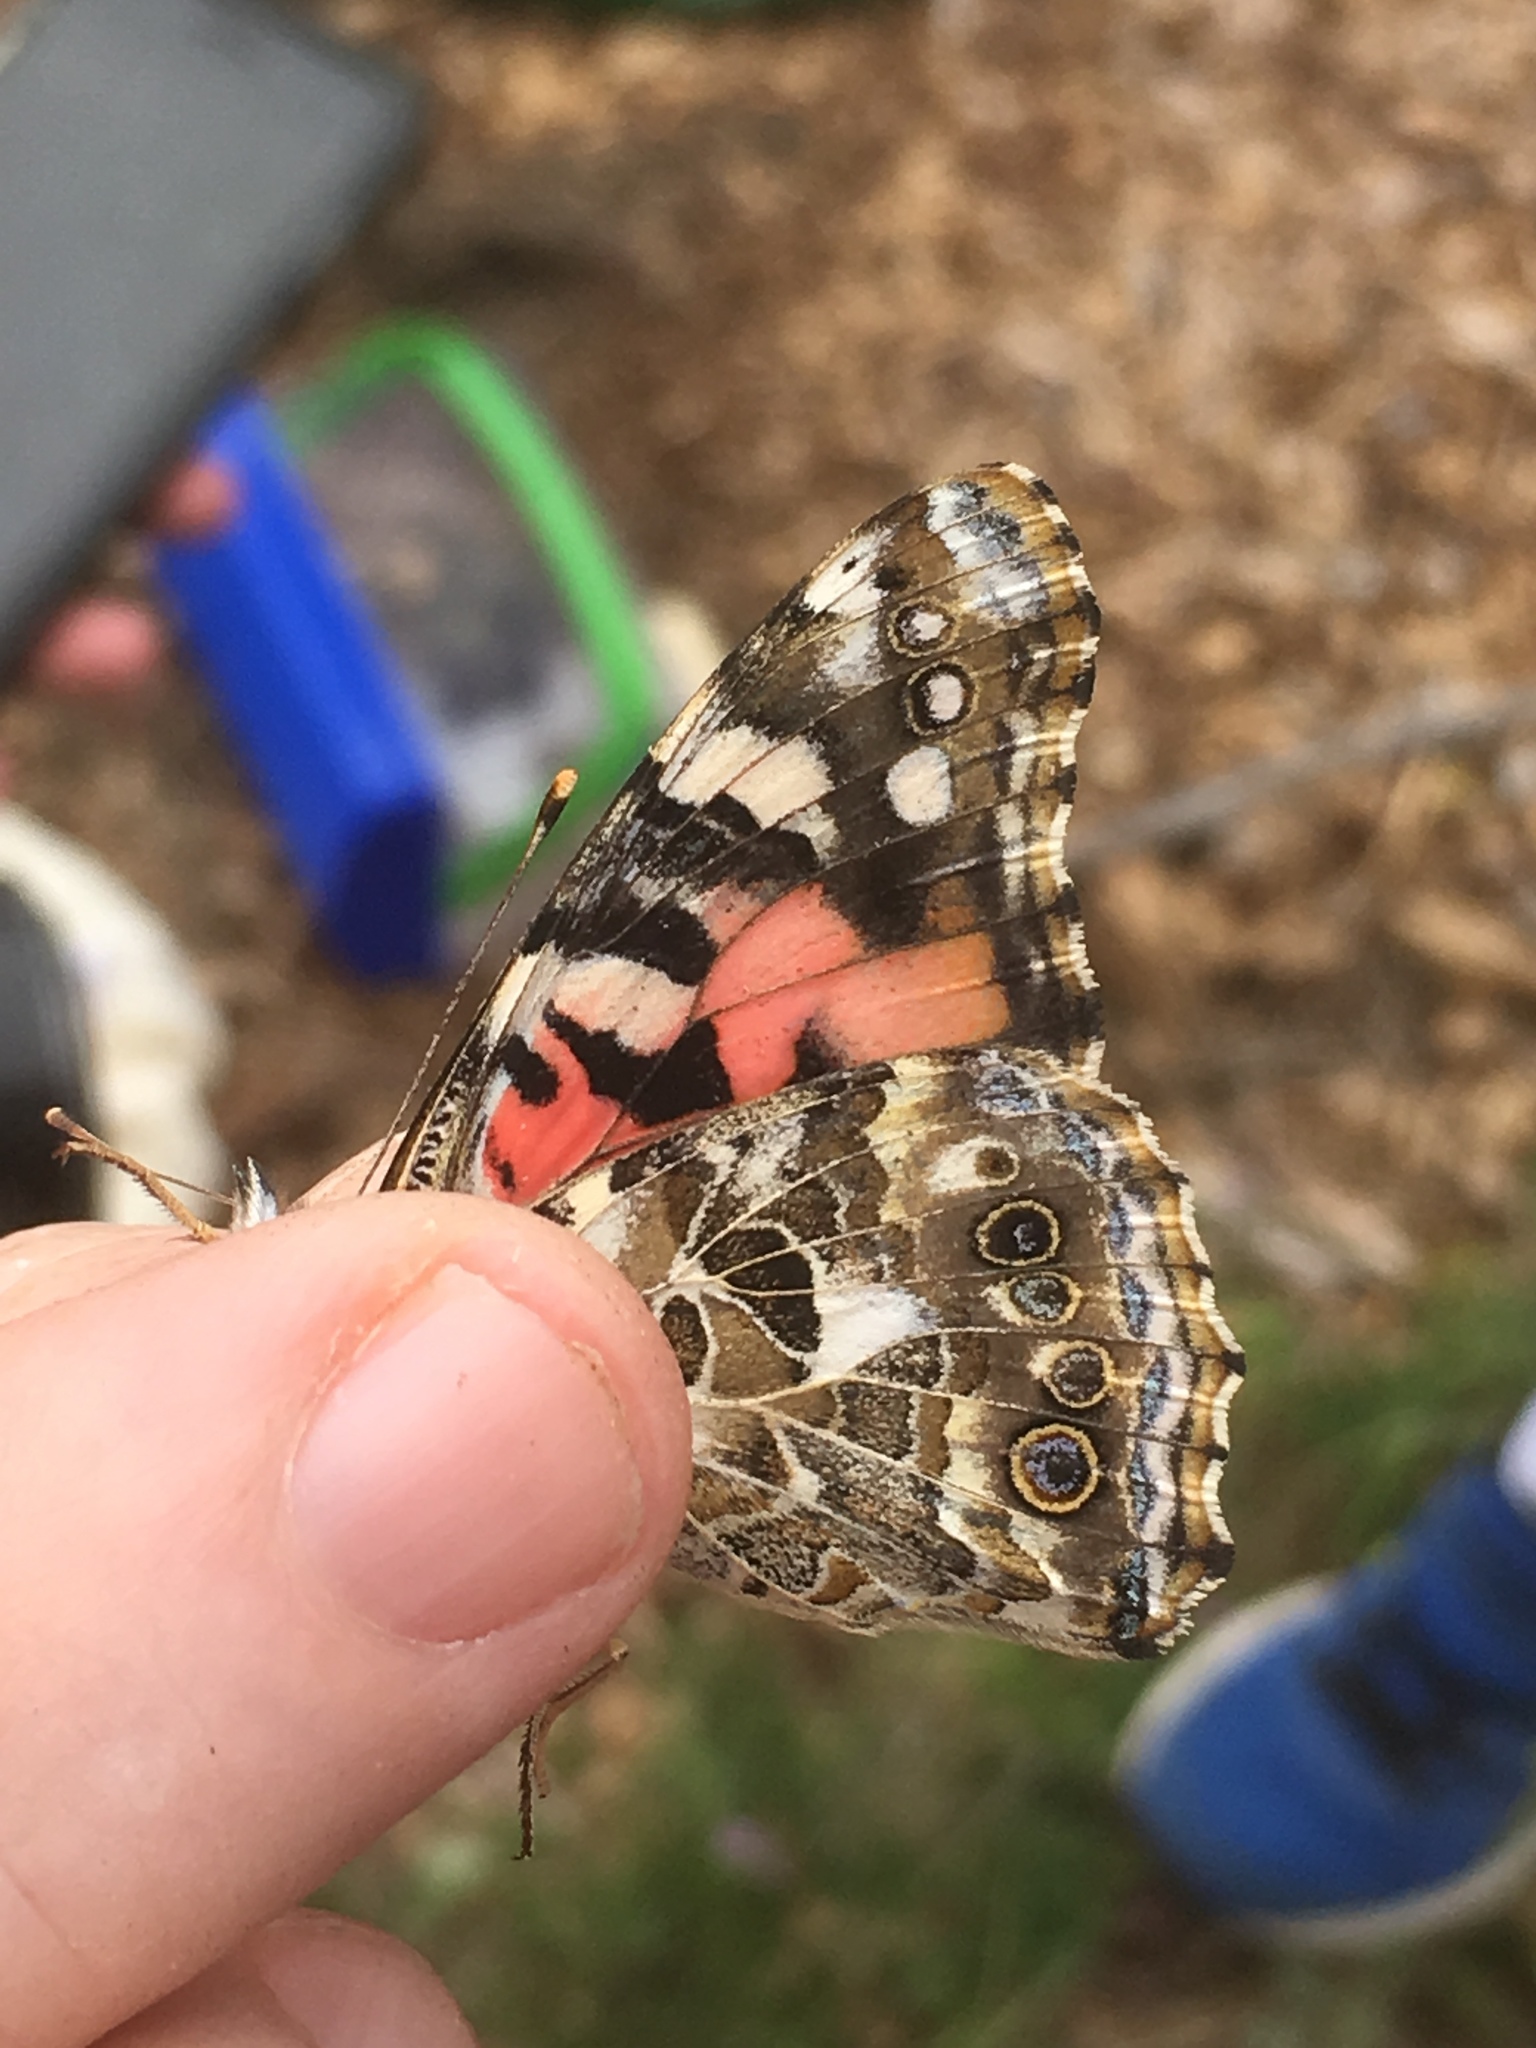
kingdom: Animalia
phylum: Arthropoda
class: Insecta
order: Lepidoptera
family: Nymphalidae
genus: Vanessa
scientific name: Vanessa cardui
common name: Painted lady
